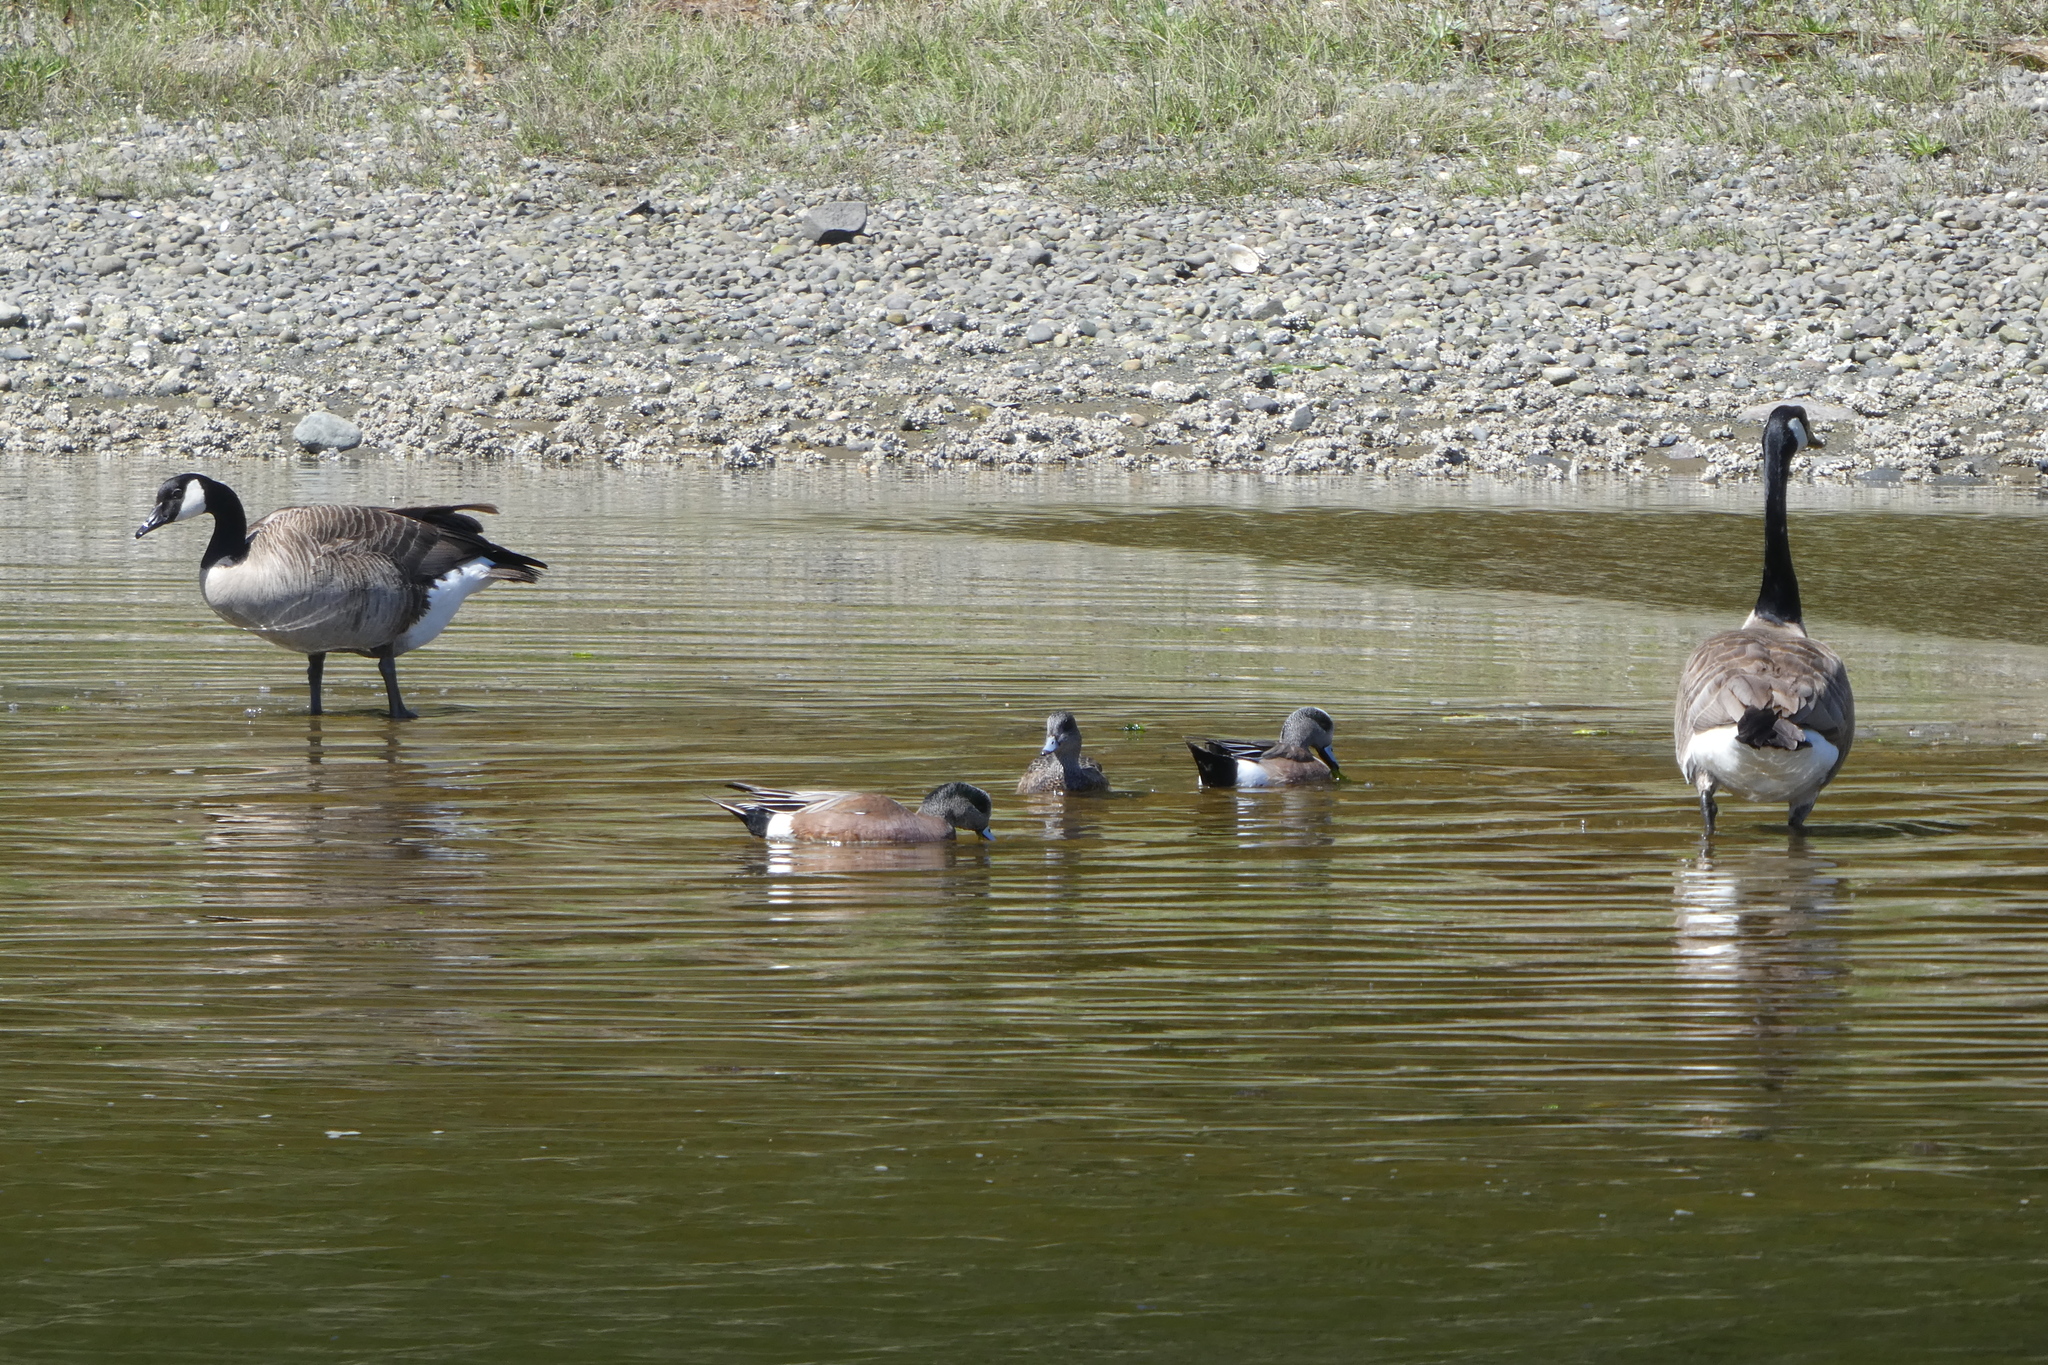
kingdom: Animalia
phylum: Chordata
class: Aves
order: Anseriformes
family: Anatidae
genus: Mareca
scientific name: Mareca americana
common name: American wigeon
